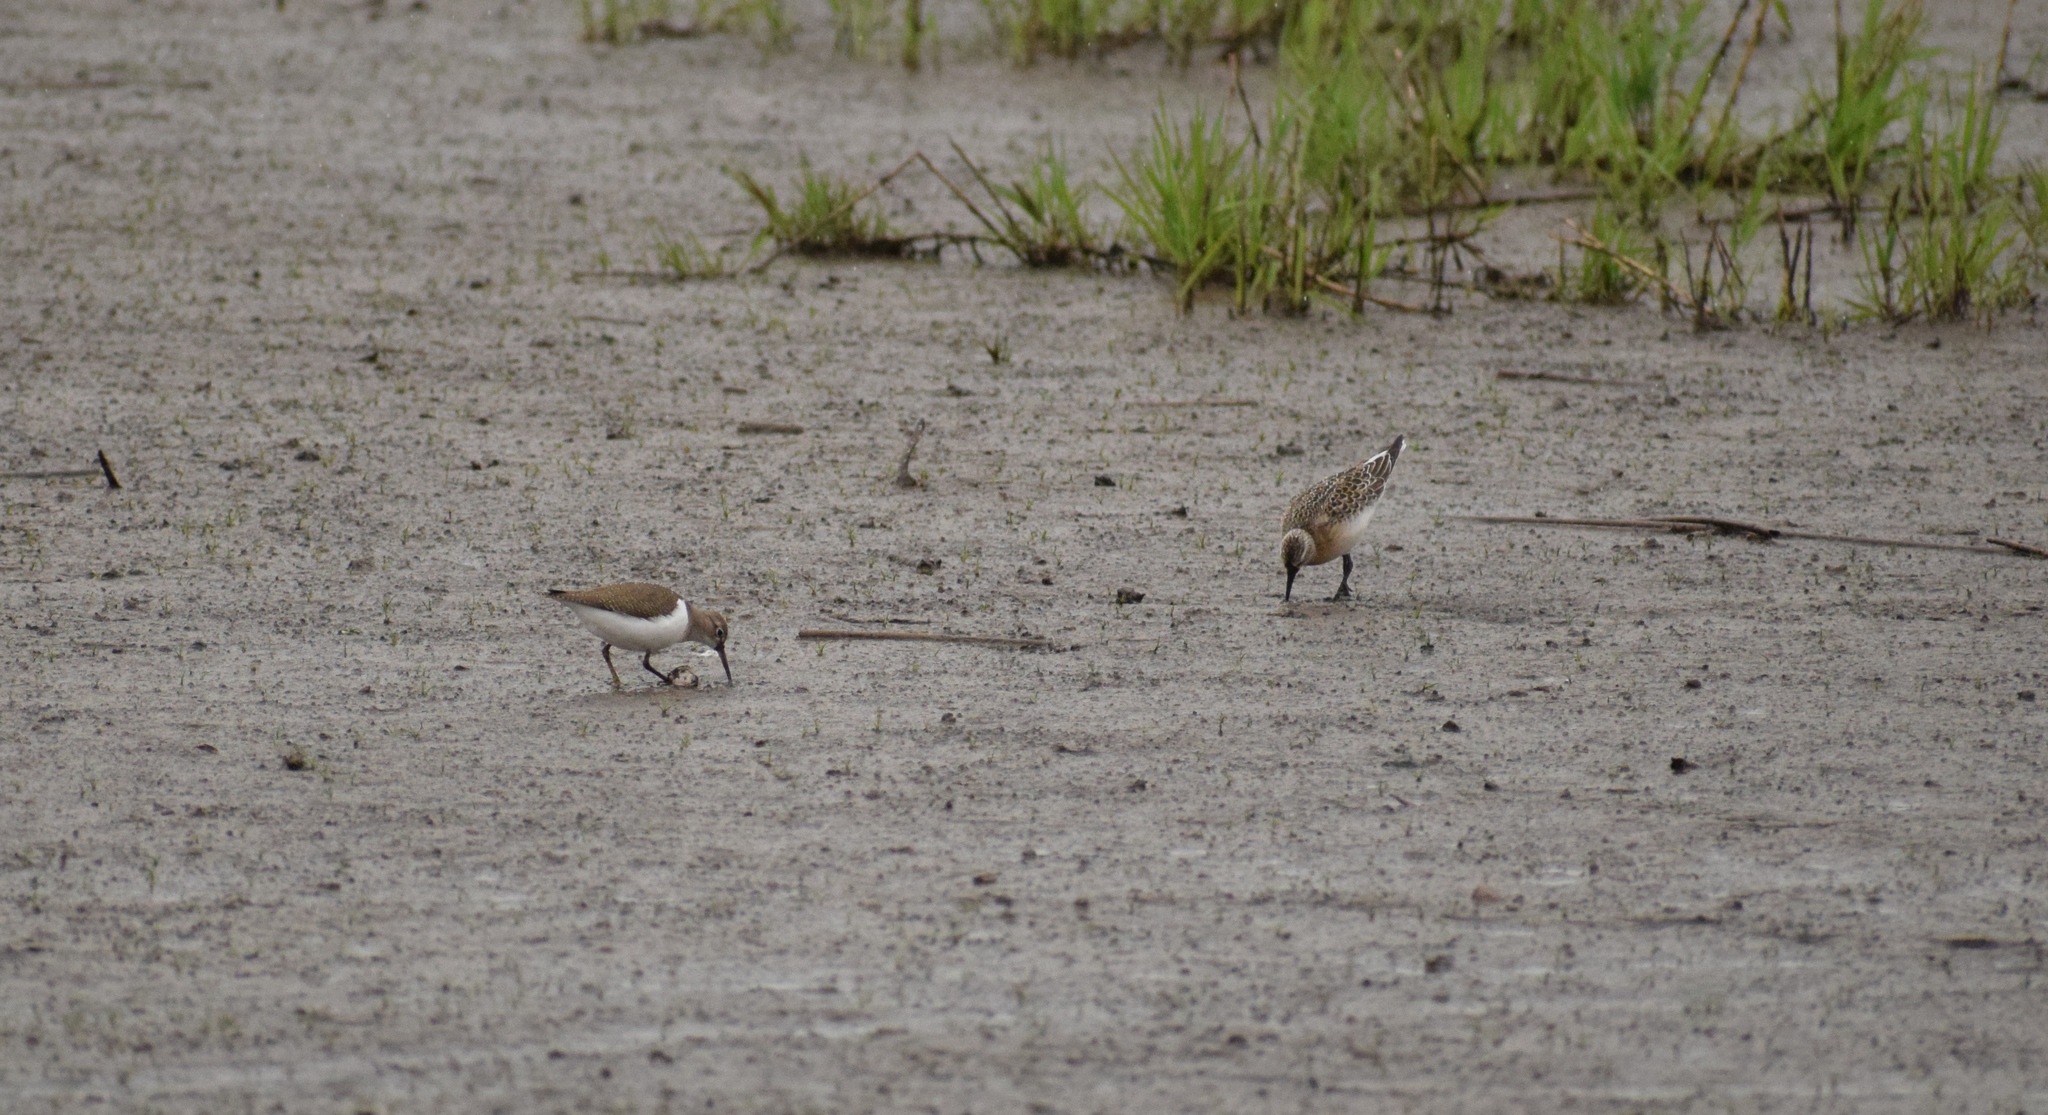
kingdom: Animalia
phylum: Chordata
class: Aves
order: Charadriiformes
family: Scolopacidae
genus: Actitis
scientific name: Actitis hypoleucos
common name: Common sandpiper
